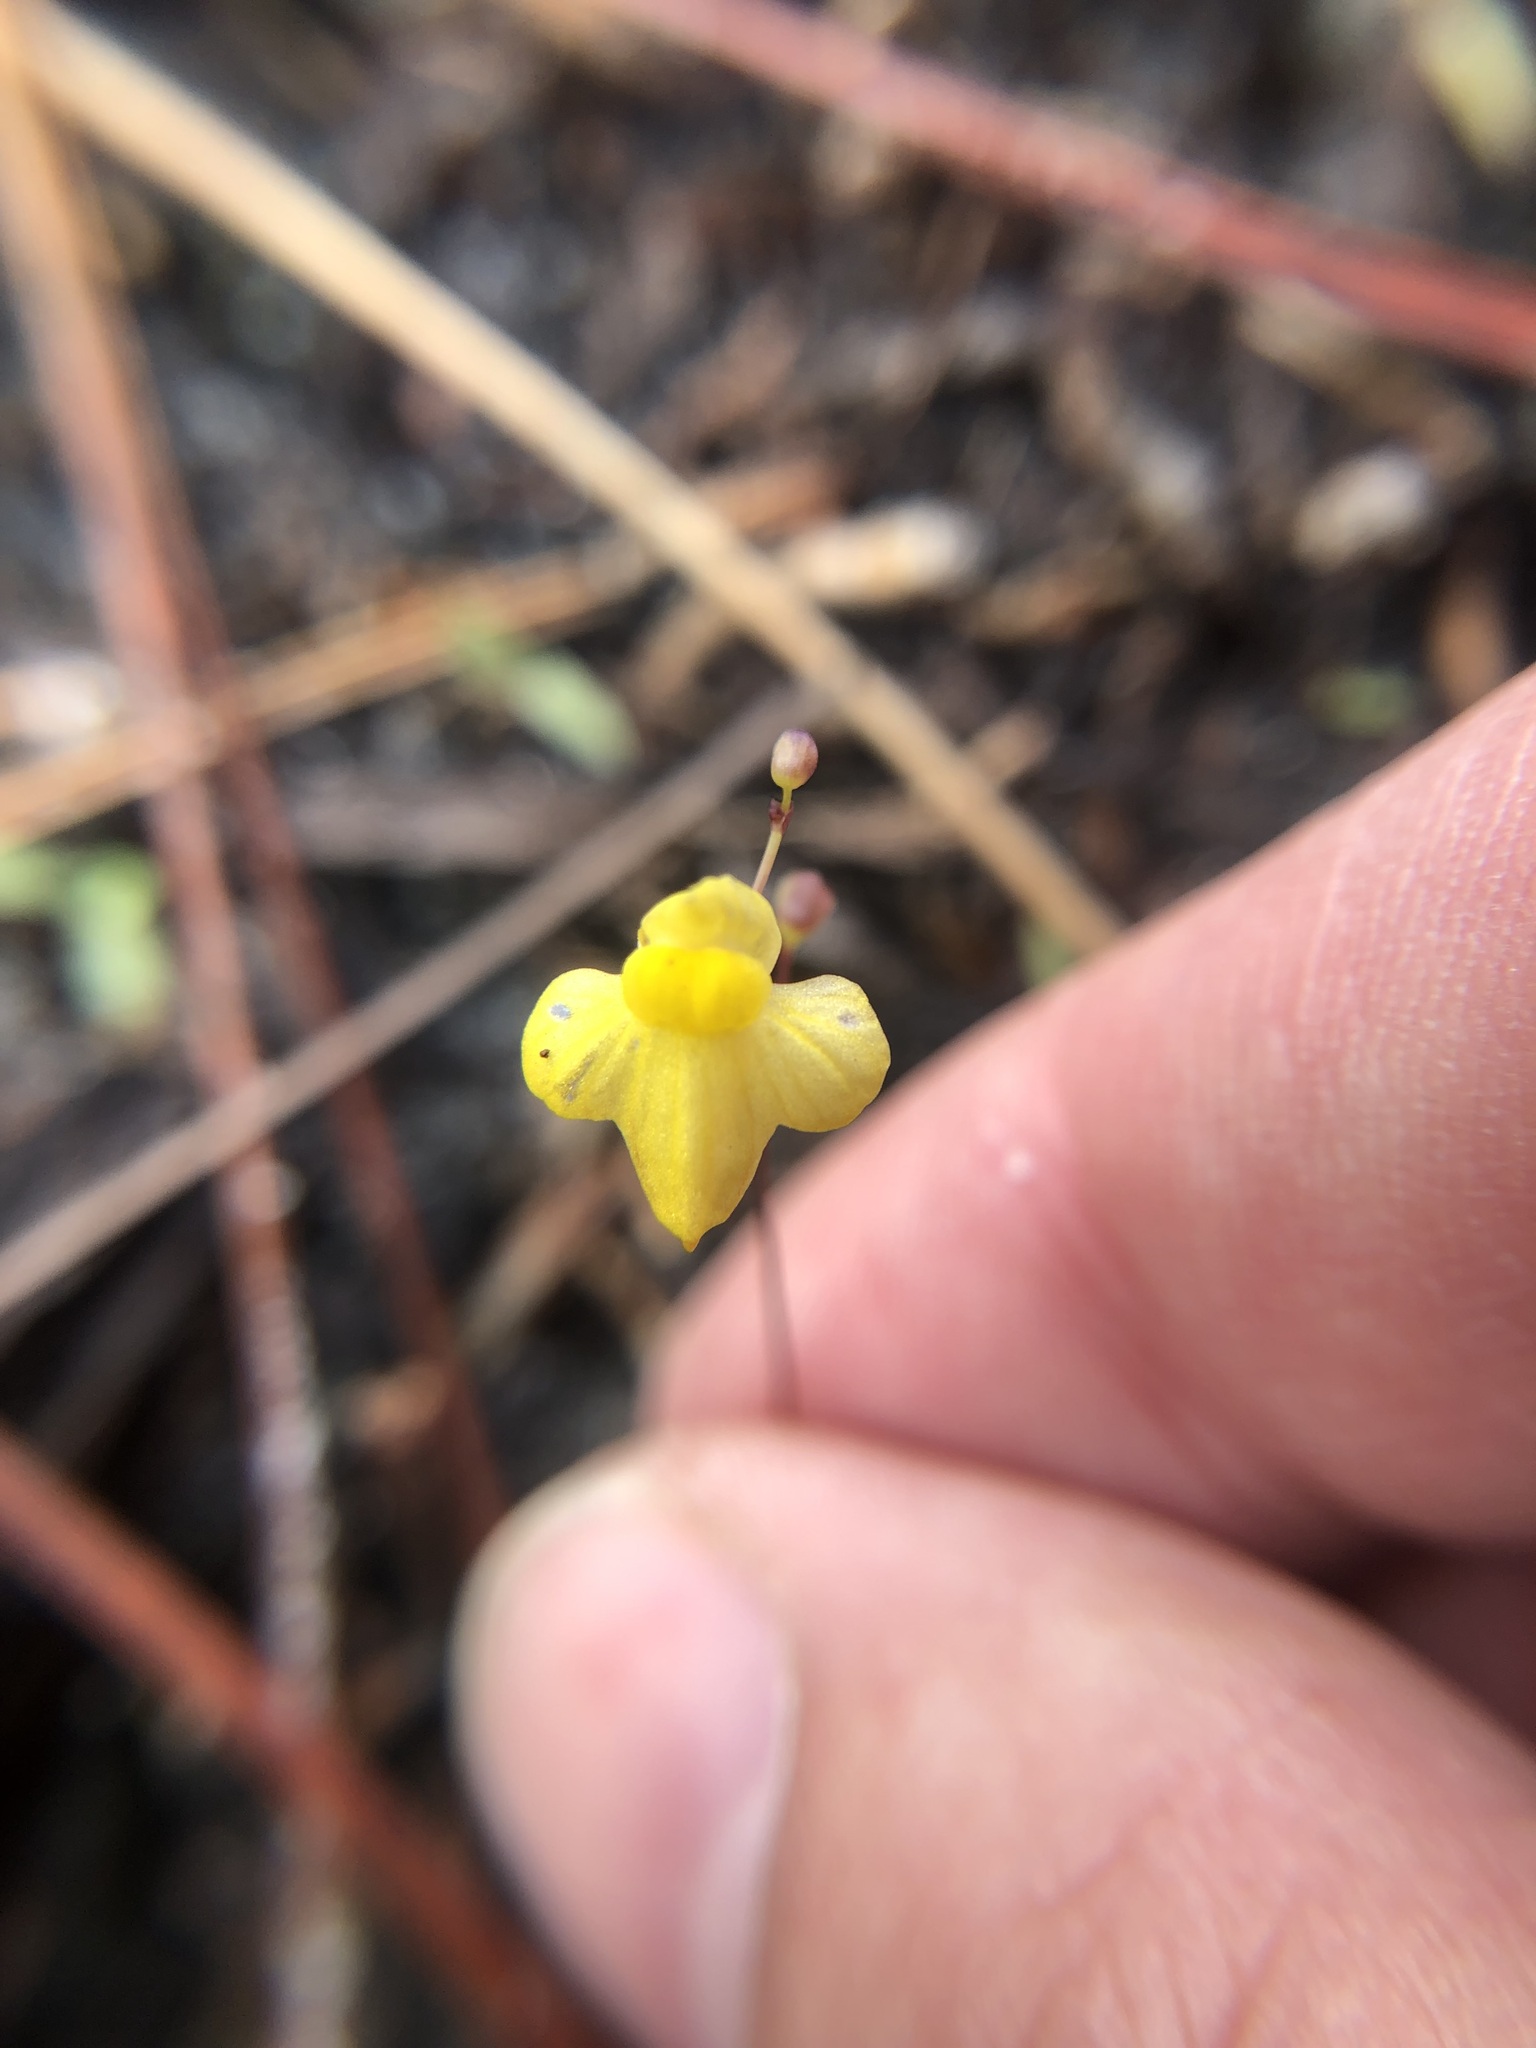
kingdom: Plantae
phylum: Tracheophyta
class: Magnoliopsida
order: Lamiales
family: Lentibulariaceae
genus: Utricularia
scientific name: Utricularia subulata
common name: Tiny bladderwort
